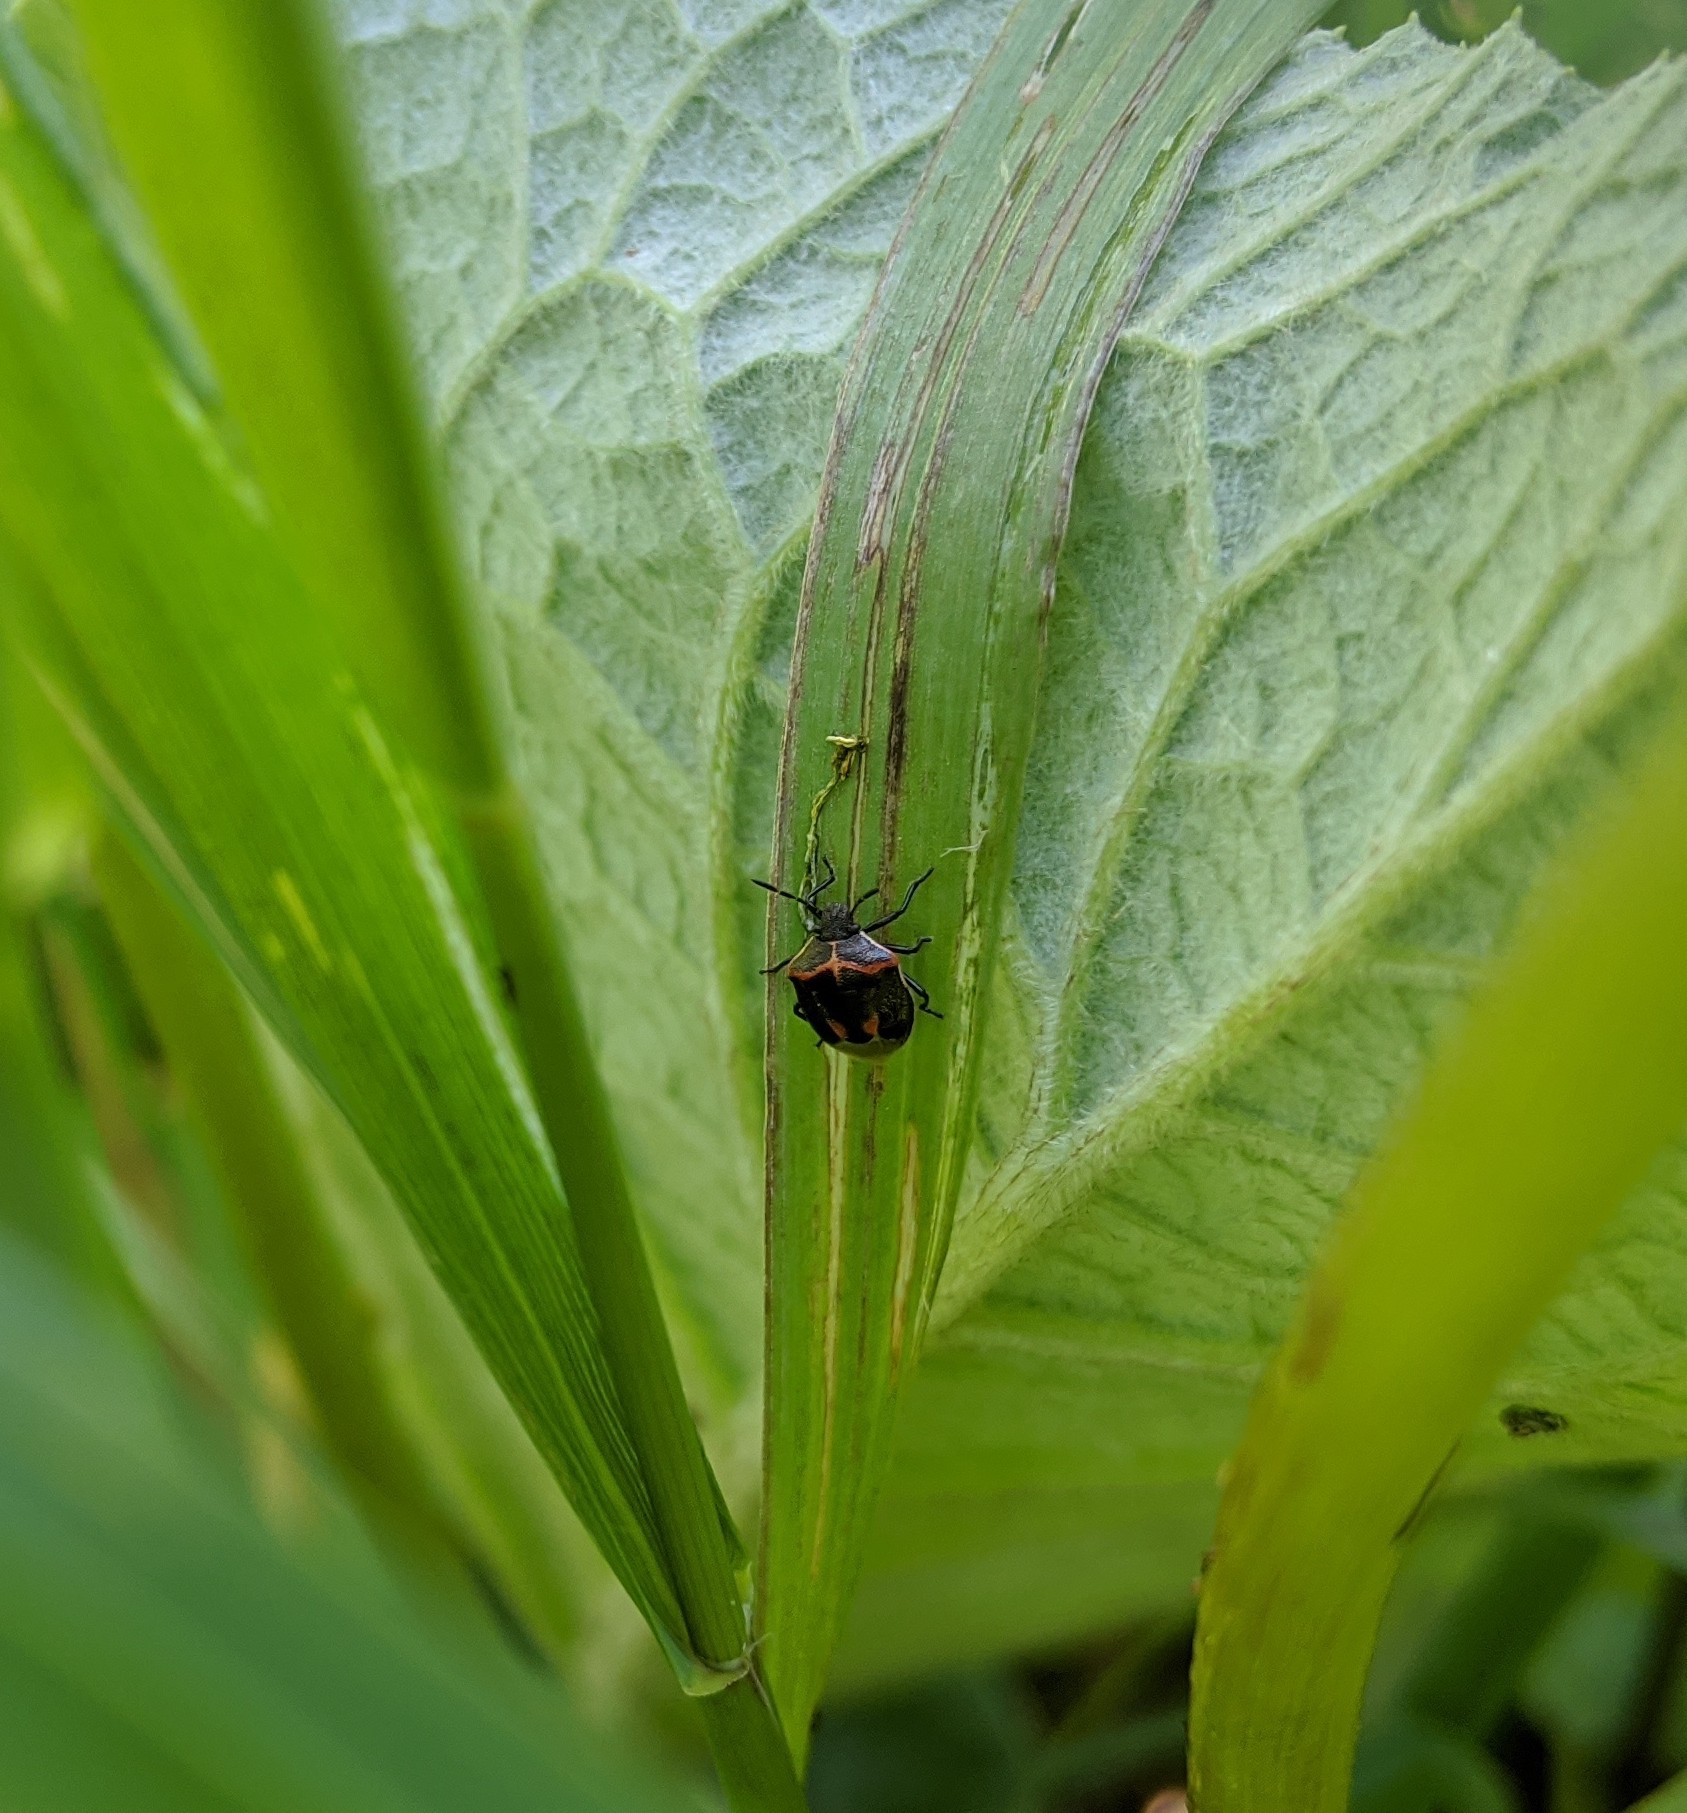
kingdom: Animalia
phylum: Arthropoda
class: Insecta
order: Hemiptera
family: Pentatomidae
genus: Cosmopepla
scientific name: Cosmopepla lintneriana
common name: Twice-stabbed stink bug
